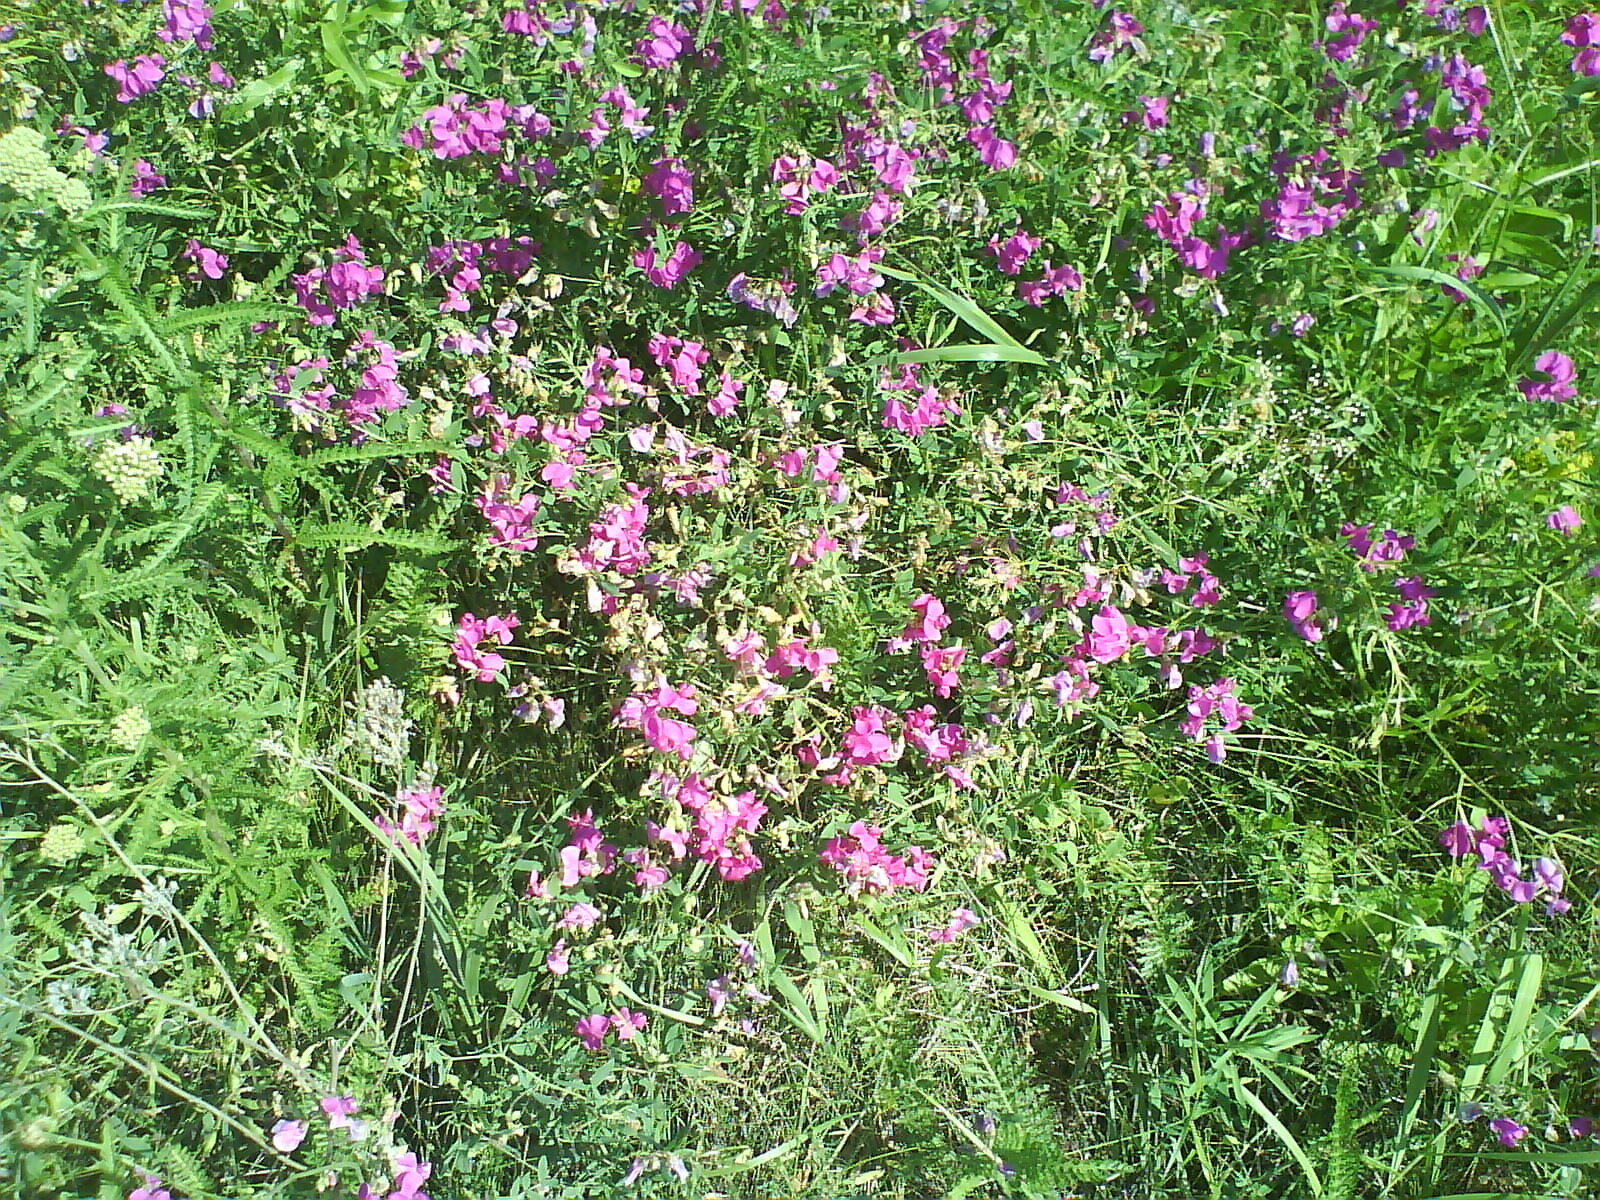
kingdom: Plantae
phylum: Tracheophyta
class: Magnoliopsida
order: Fabales
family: Fabaceae
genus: Lathyrus
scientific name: Lathyrus tuberosus
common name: Tuberous pea
